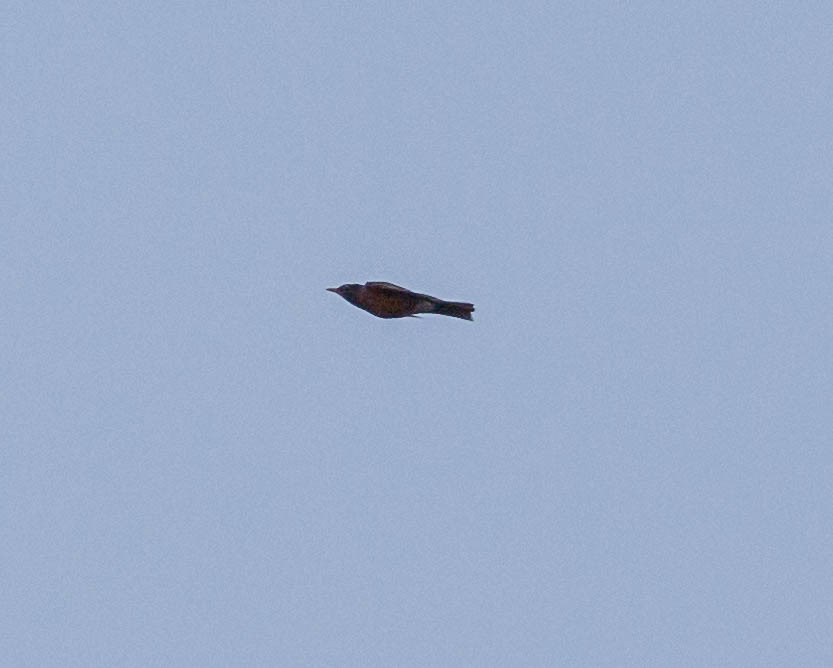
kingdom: Animalia
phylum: Chordata
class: Aves
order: Passeriformes
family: Turdidae
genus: Turdus
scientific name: Turdus migratorius
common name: American robin
